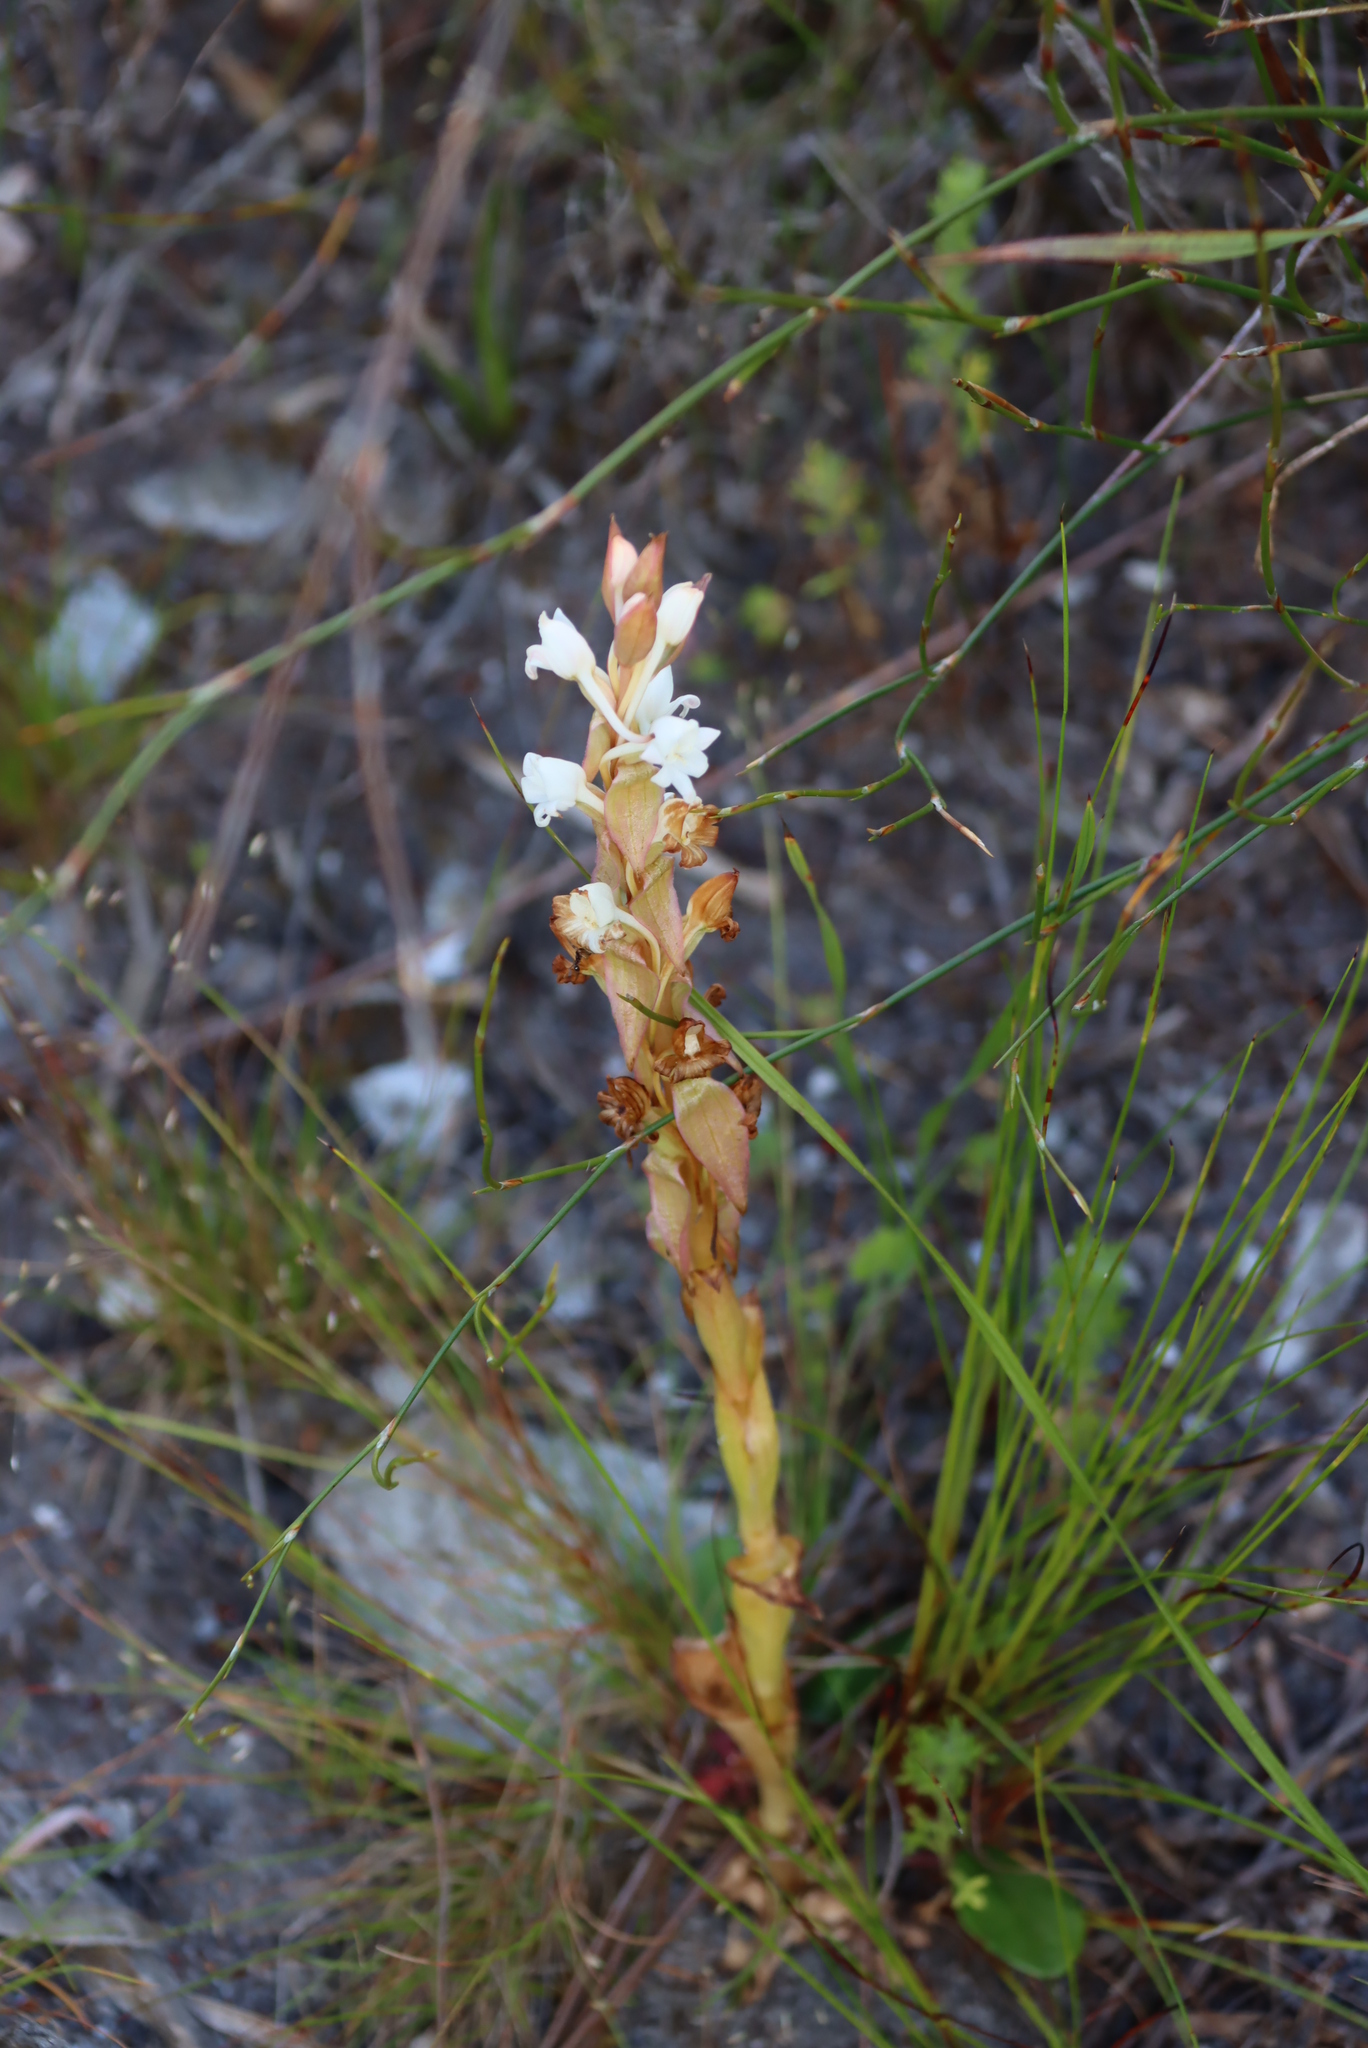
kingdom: Plantae
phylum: Tracheophyta
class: Liliopsida
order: Asparagales
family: Orchidaceae
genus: Satyrium
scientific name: Satyrium acuminatum
